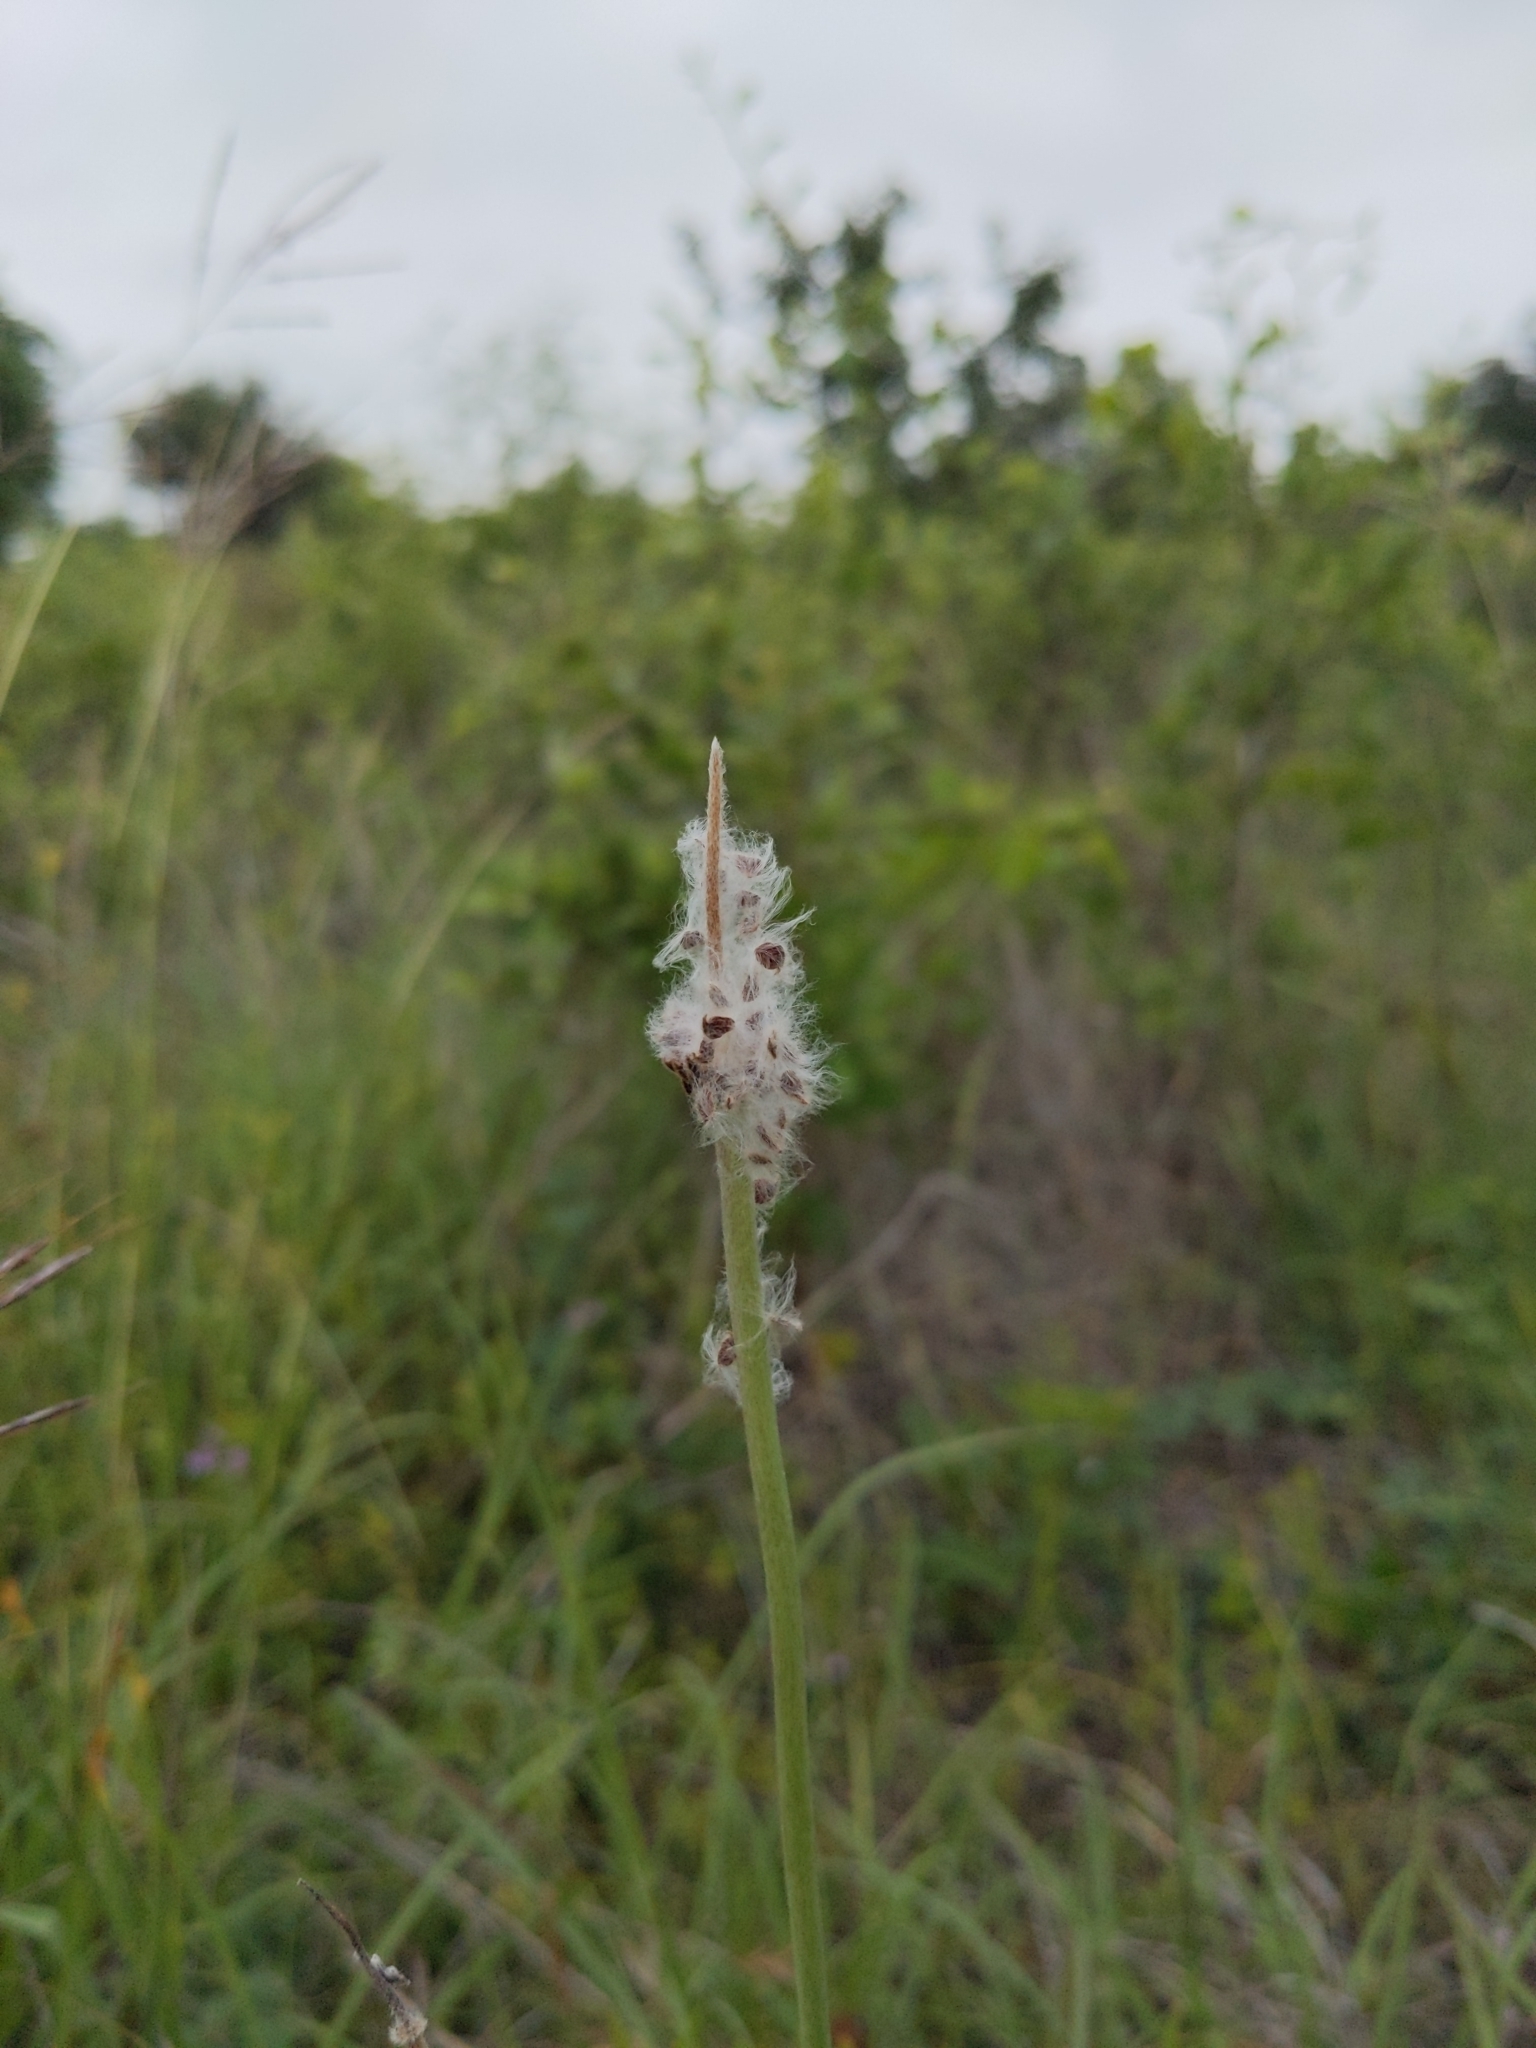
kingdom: Plantae
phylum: Tracheophyta
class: Magnoliopsida
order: Ranunculales
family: Ranunculaceae
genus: Anemone
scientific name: Anemone berlandieri
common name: Ten-petal anemone
